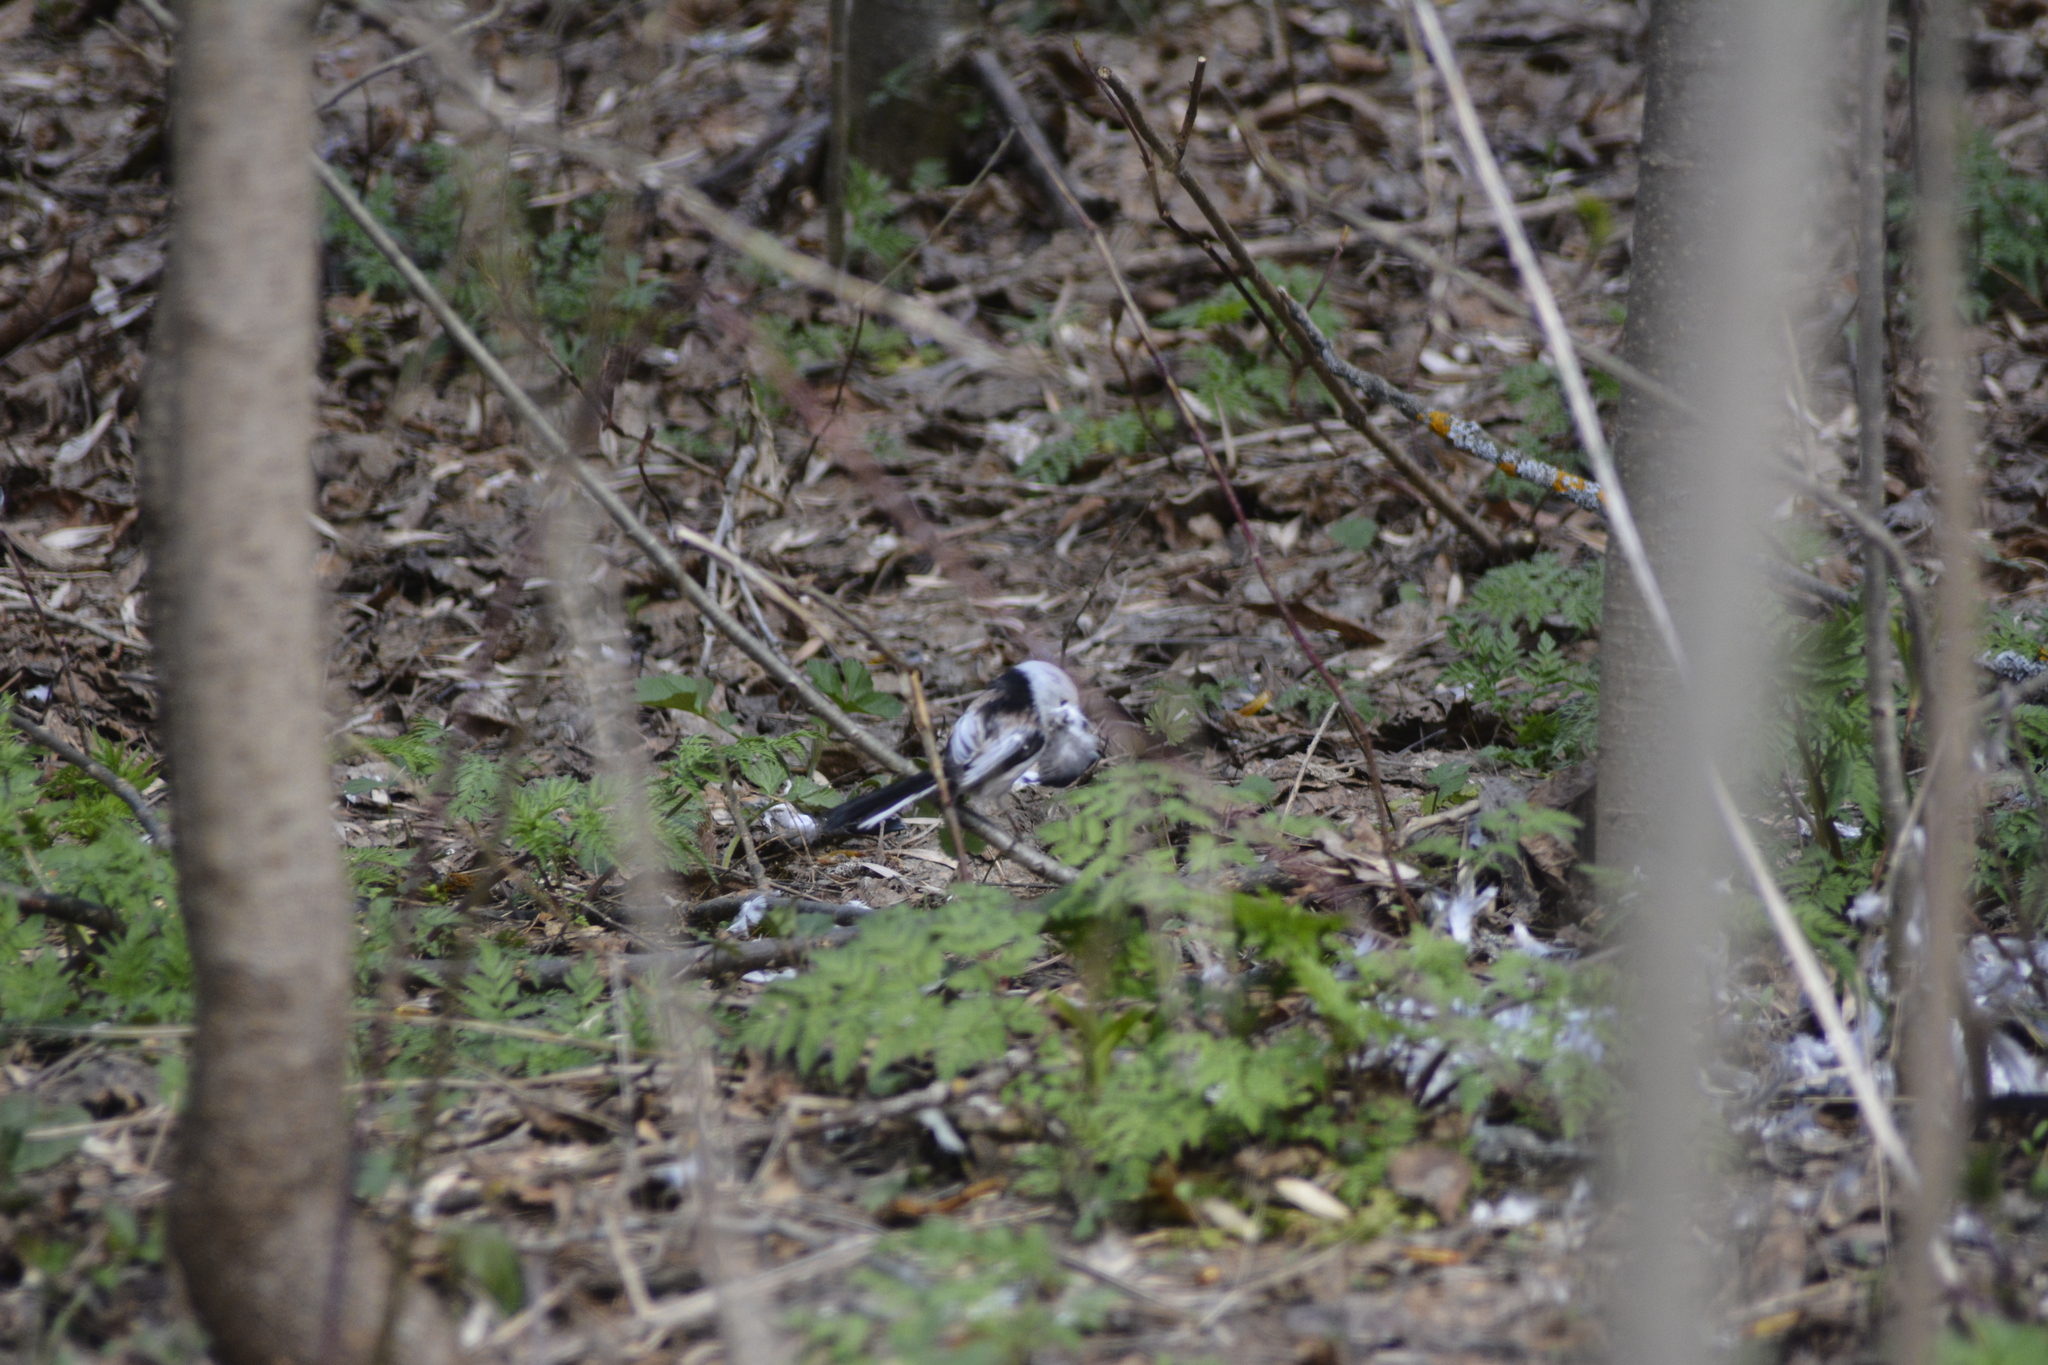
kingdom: Animalia
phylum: Chordata
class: Aves
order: Passeriformes
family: Aegithalidae
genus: Aegithalos
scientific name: Aegithalos caudatus
